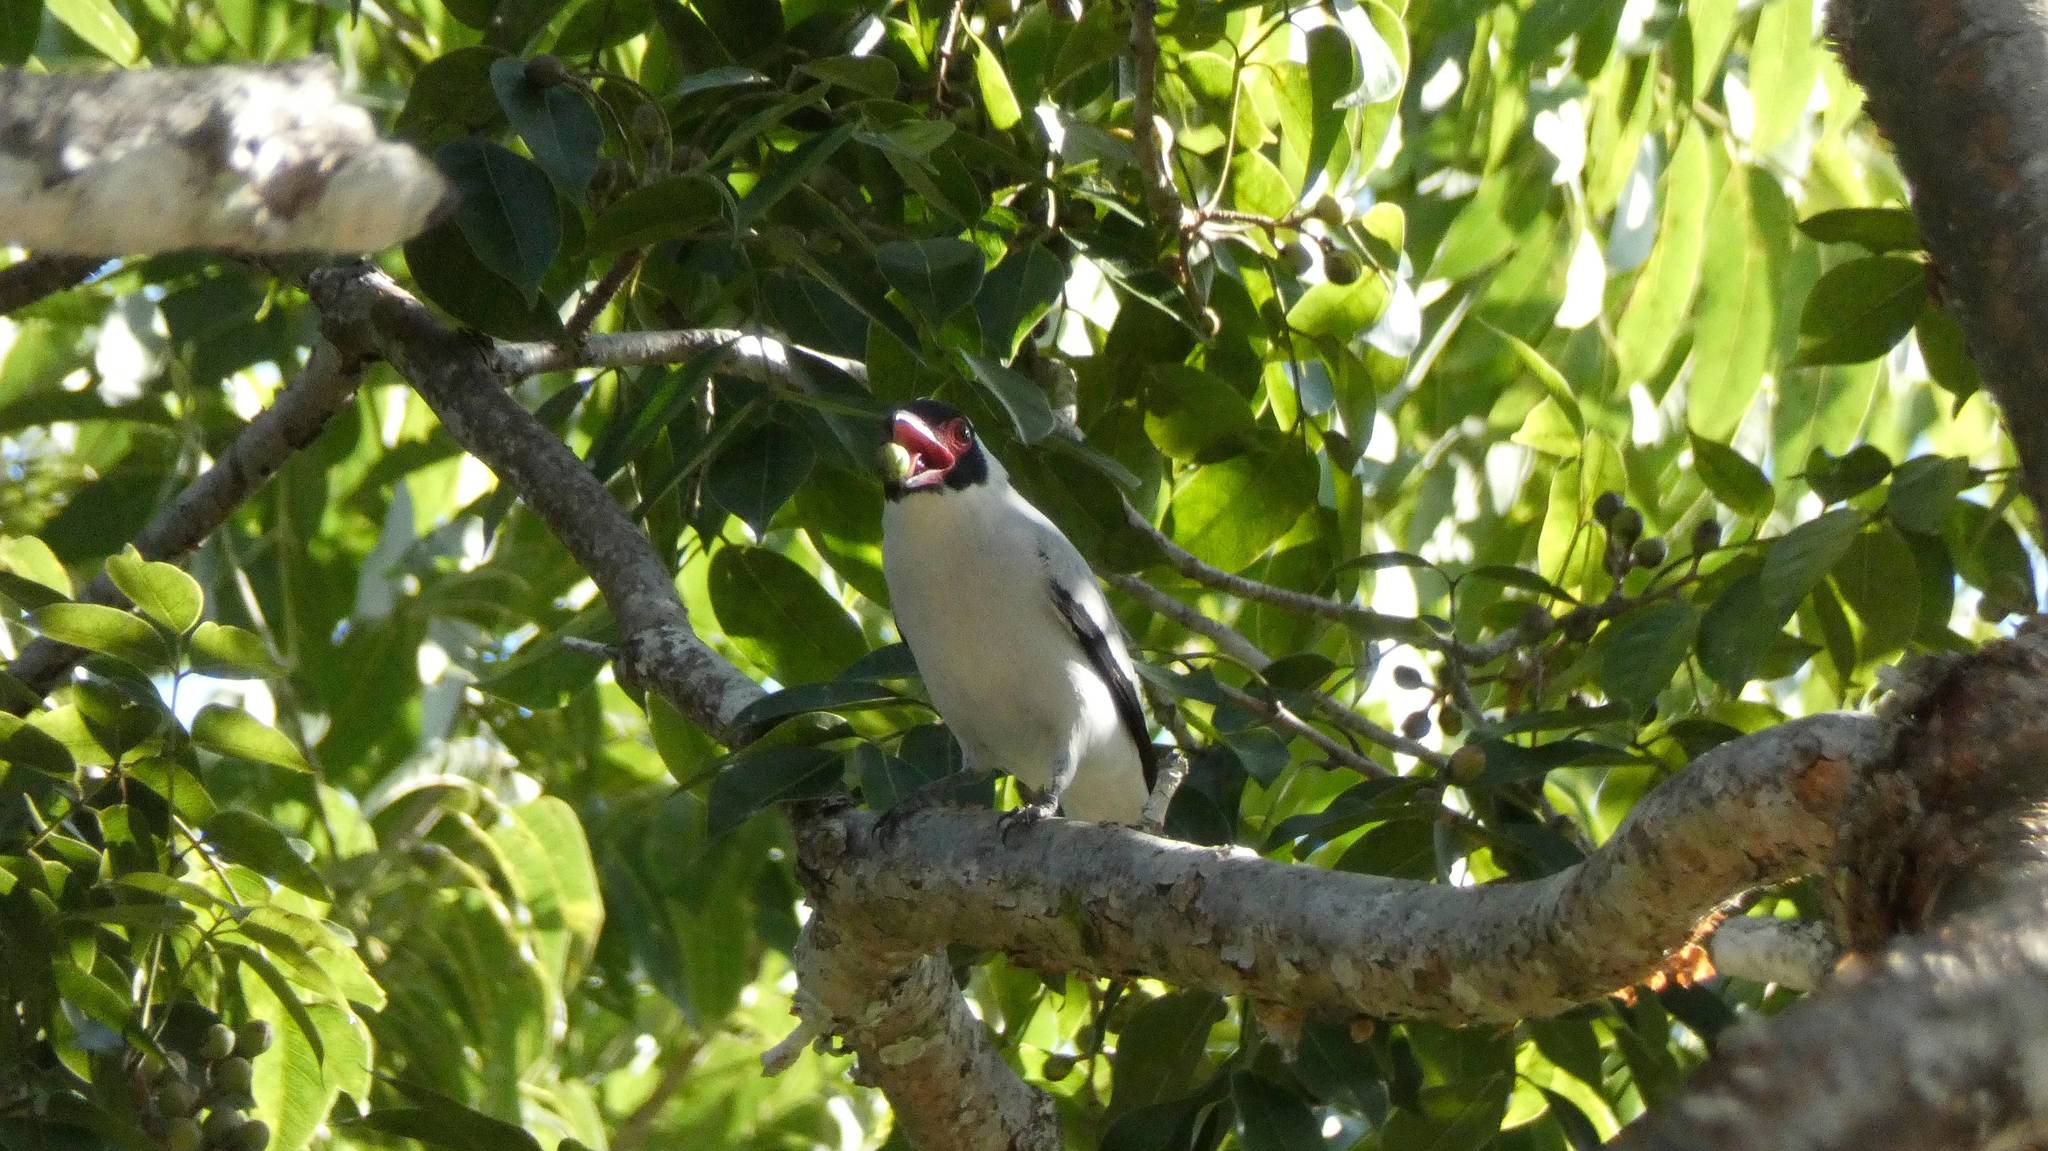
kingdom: Animalia
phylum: Chordata
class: Aves
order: Passeriformes
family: Cotingidae
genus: Tityra
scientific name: Tityra semifasciata
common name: Masked tityra
